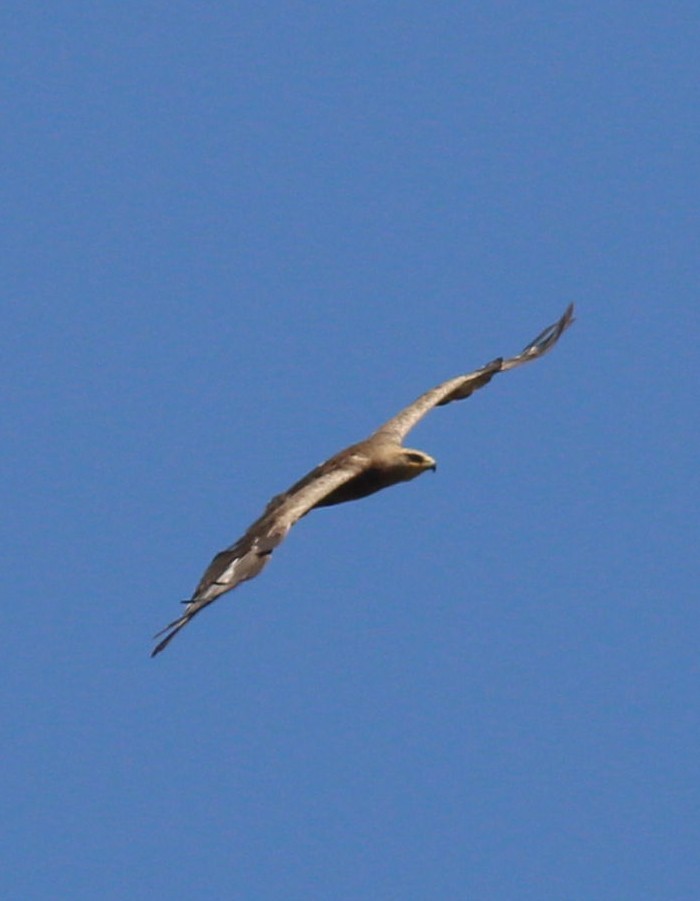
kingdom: Animalia
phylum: Chordata
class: Aves
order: Accipitriformes
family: Accipitridae
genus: Aquila
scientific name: Aquila nipalensis
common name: Steppe eagle
